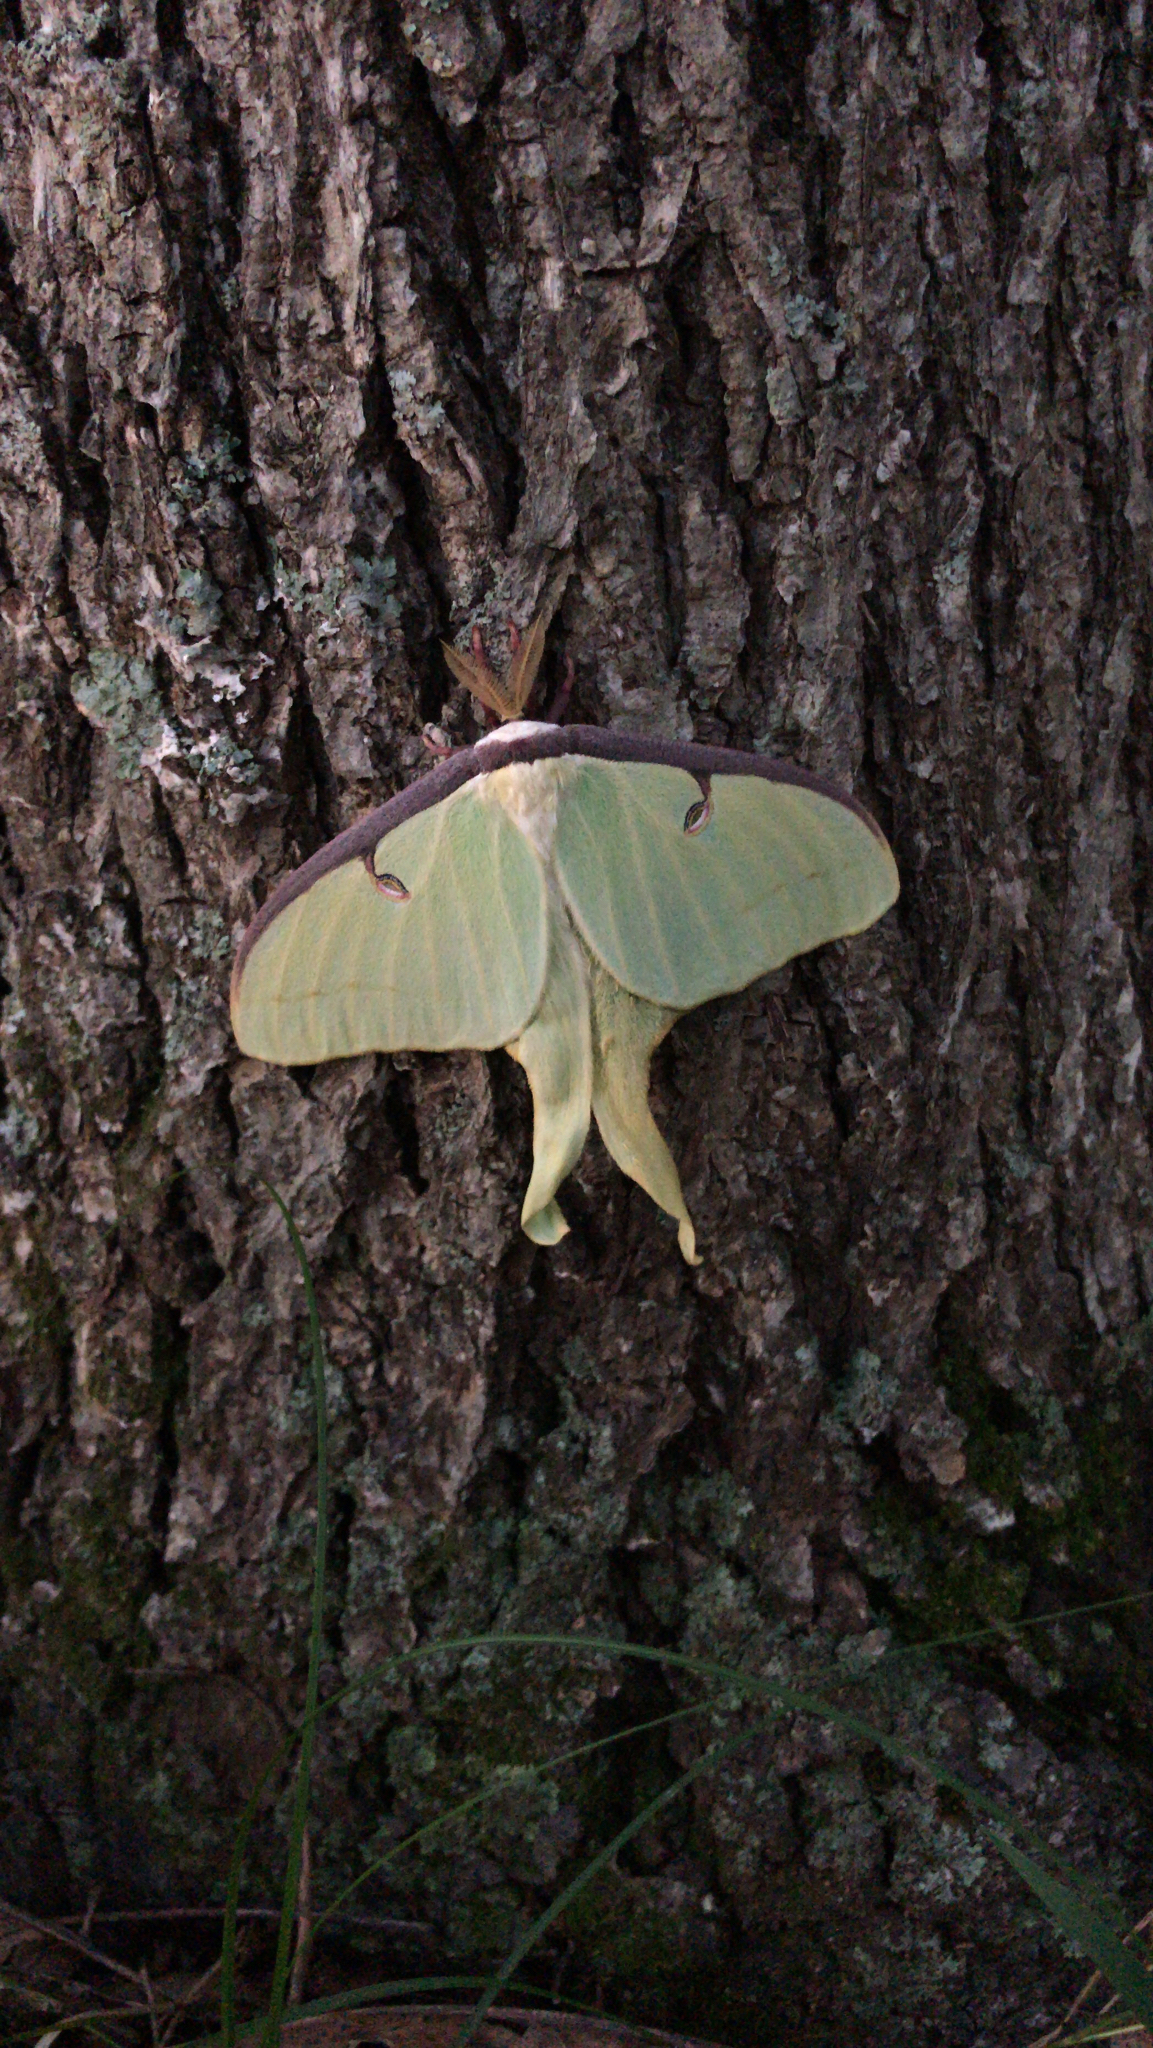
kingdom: Animalia
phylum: Arthropoda
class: Insecta
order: Lepidoptera
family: Saturniidae
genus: Actias
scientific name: Actias luna
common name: Luna moth
